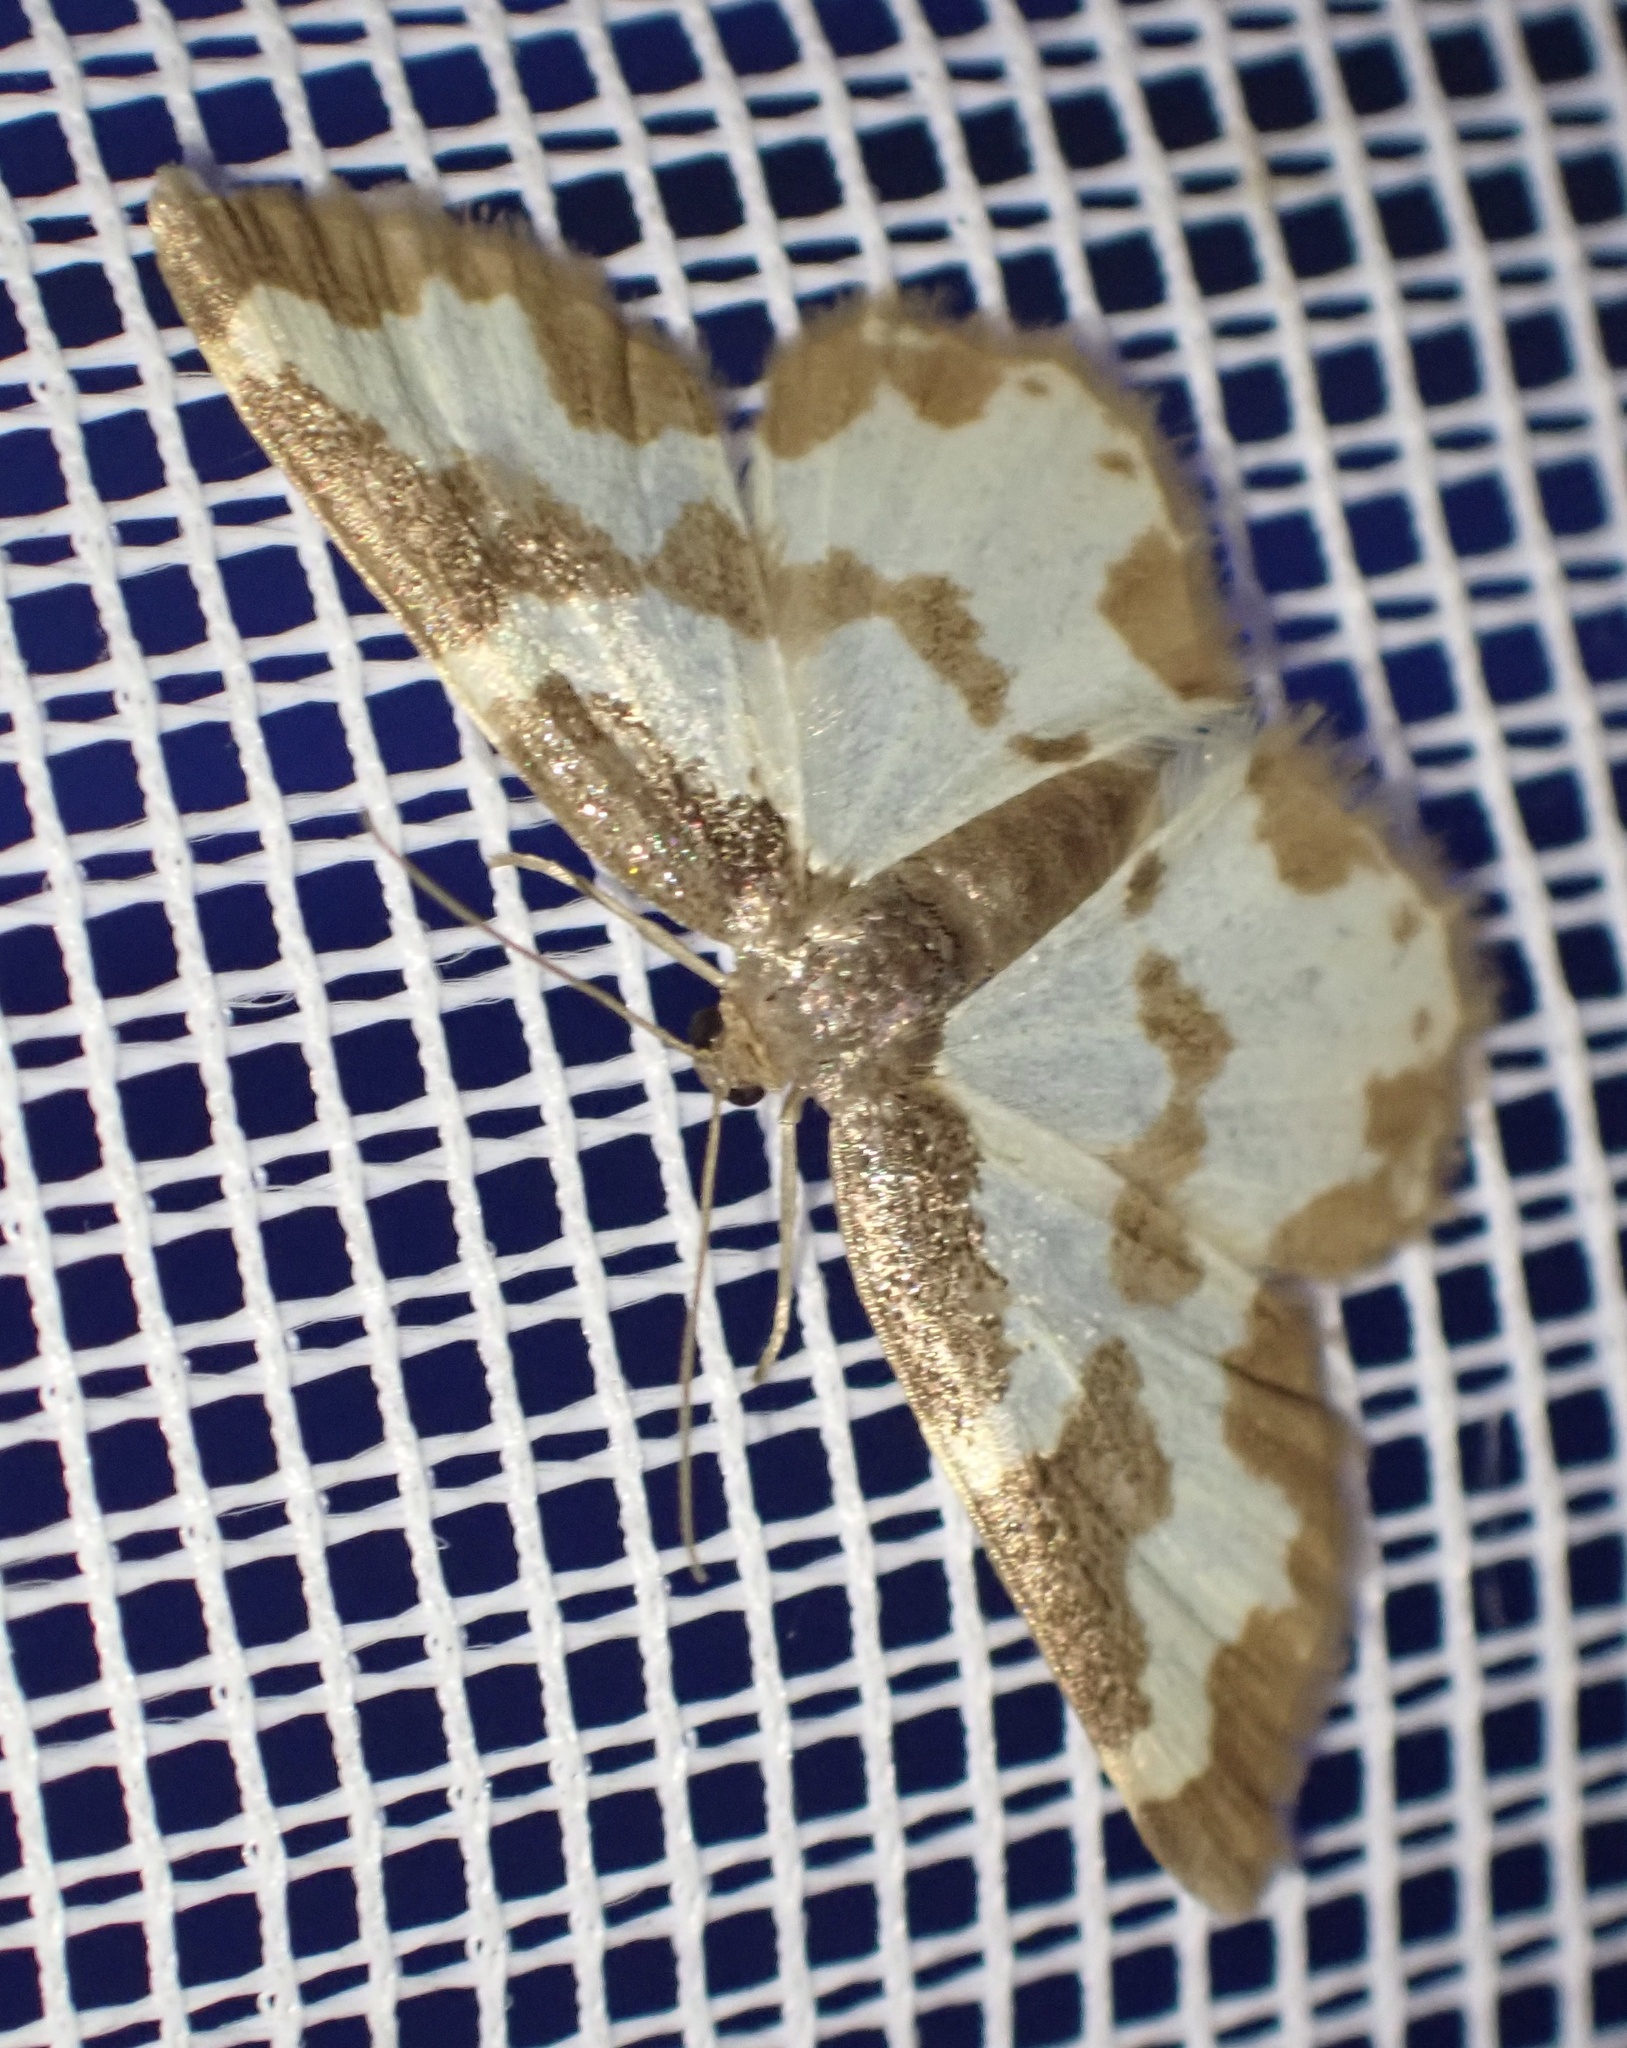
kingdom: Animalia
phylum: Arthropoda
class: Insecta
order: Lepidoptera
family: Geometridae
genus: Lomaspilis
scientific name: Lomaspilis marginata
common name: Clouded border
